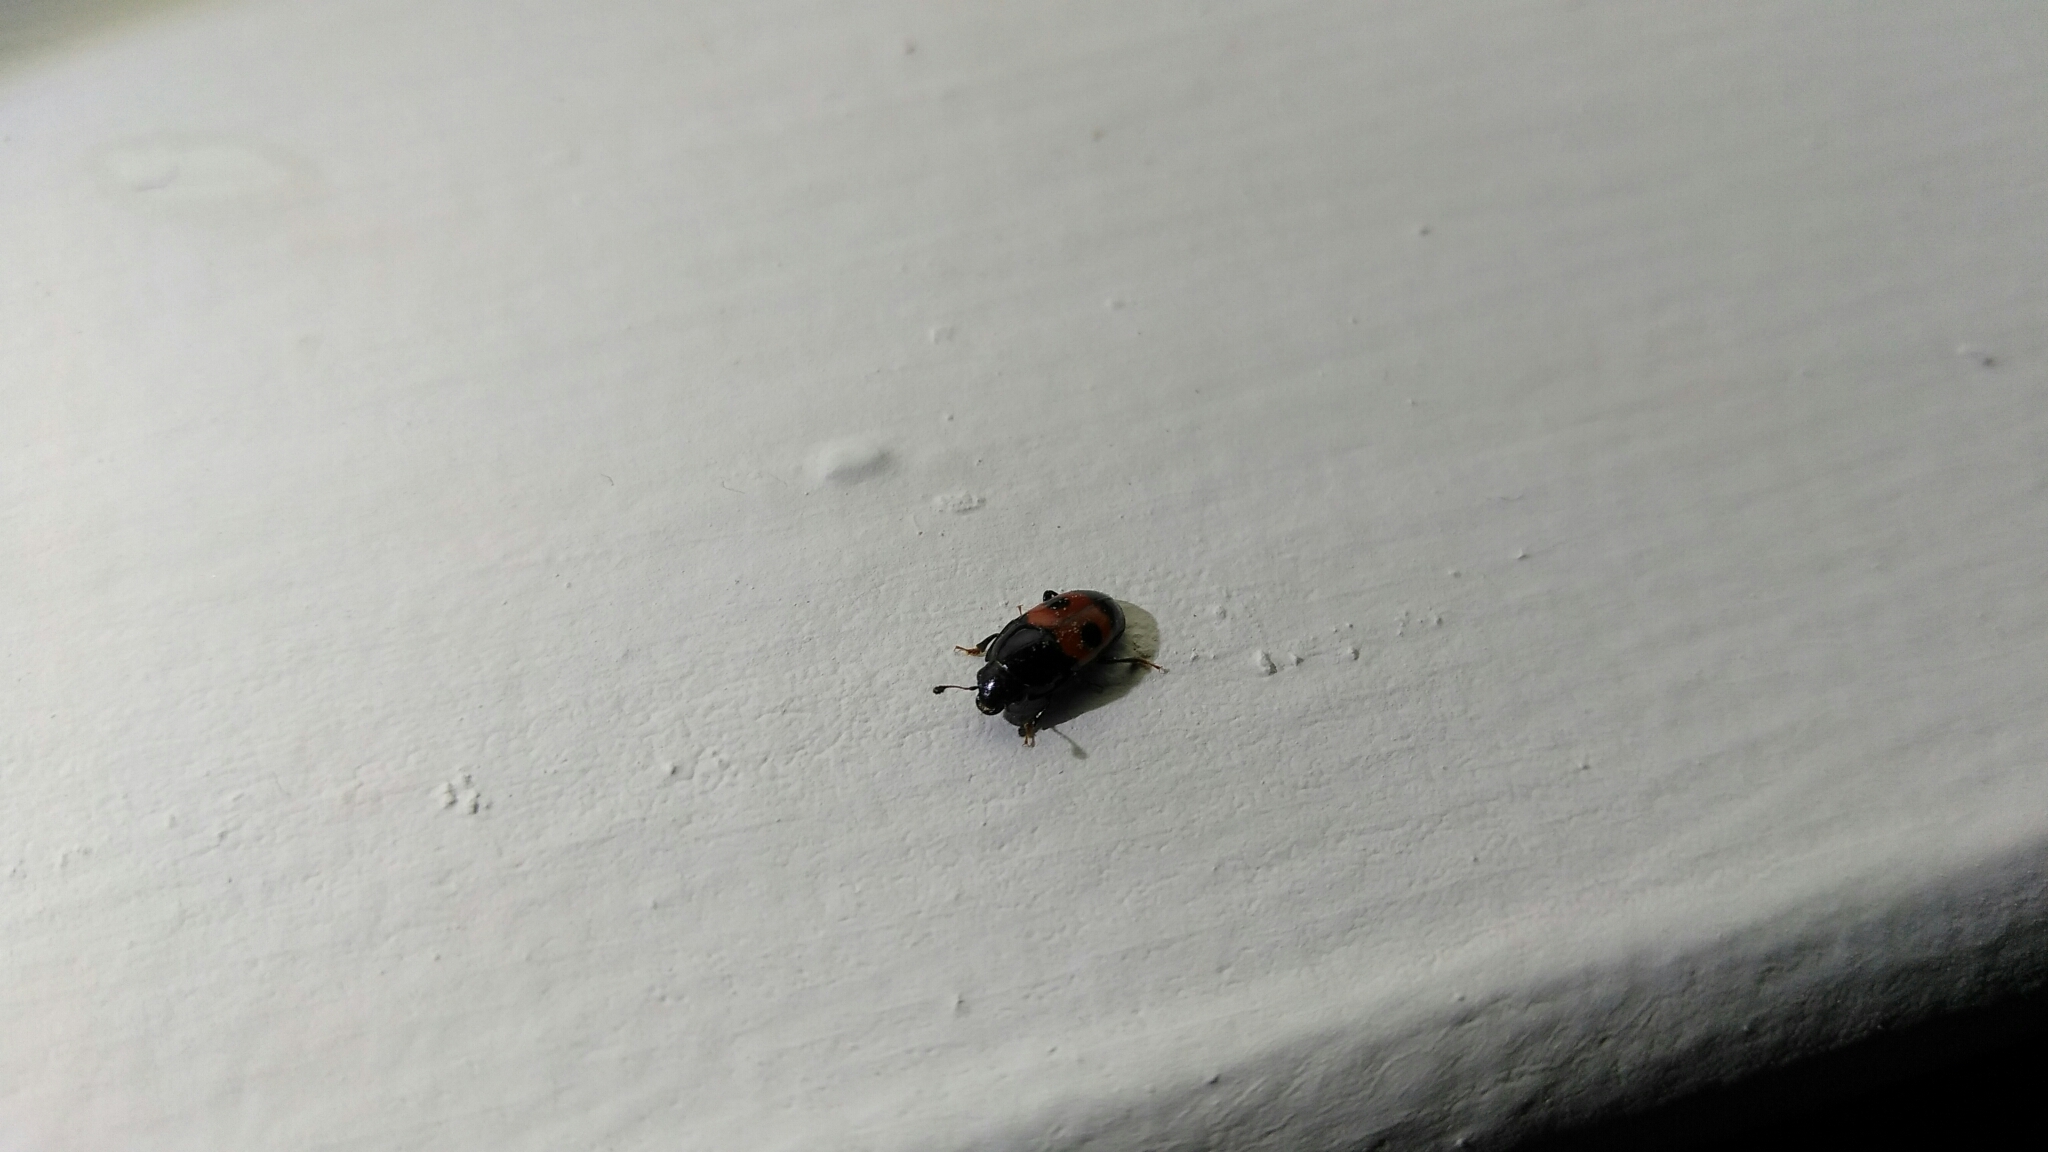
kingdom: Animalia
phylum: Arthropoda
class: Insecta
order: Coleoptera
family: Nitidulidae
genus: Glischrochilus
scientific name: Glischrochilus sanguinolentus
